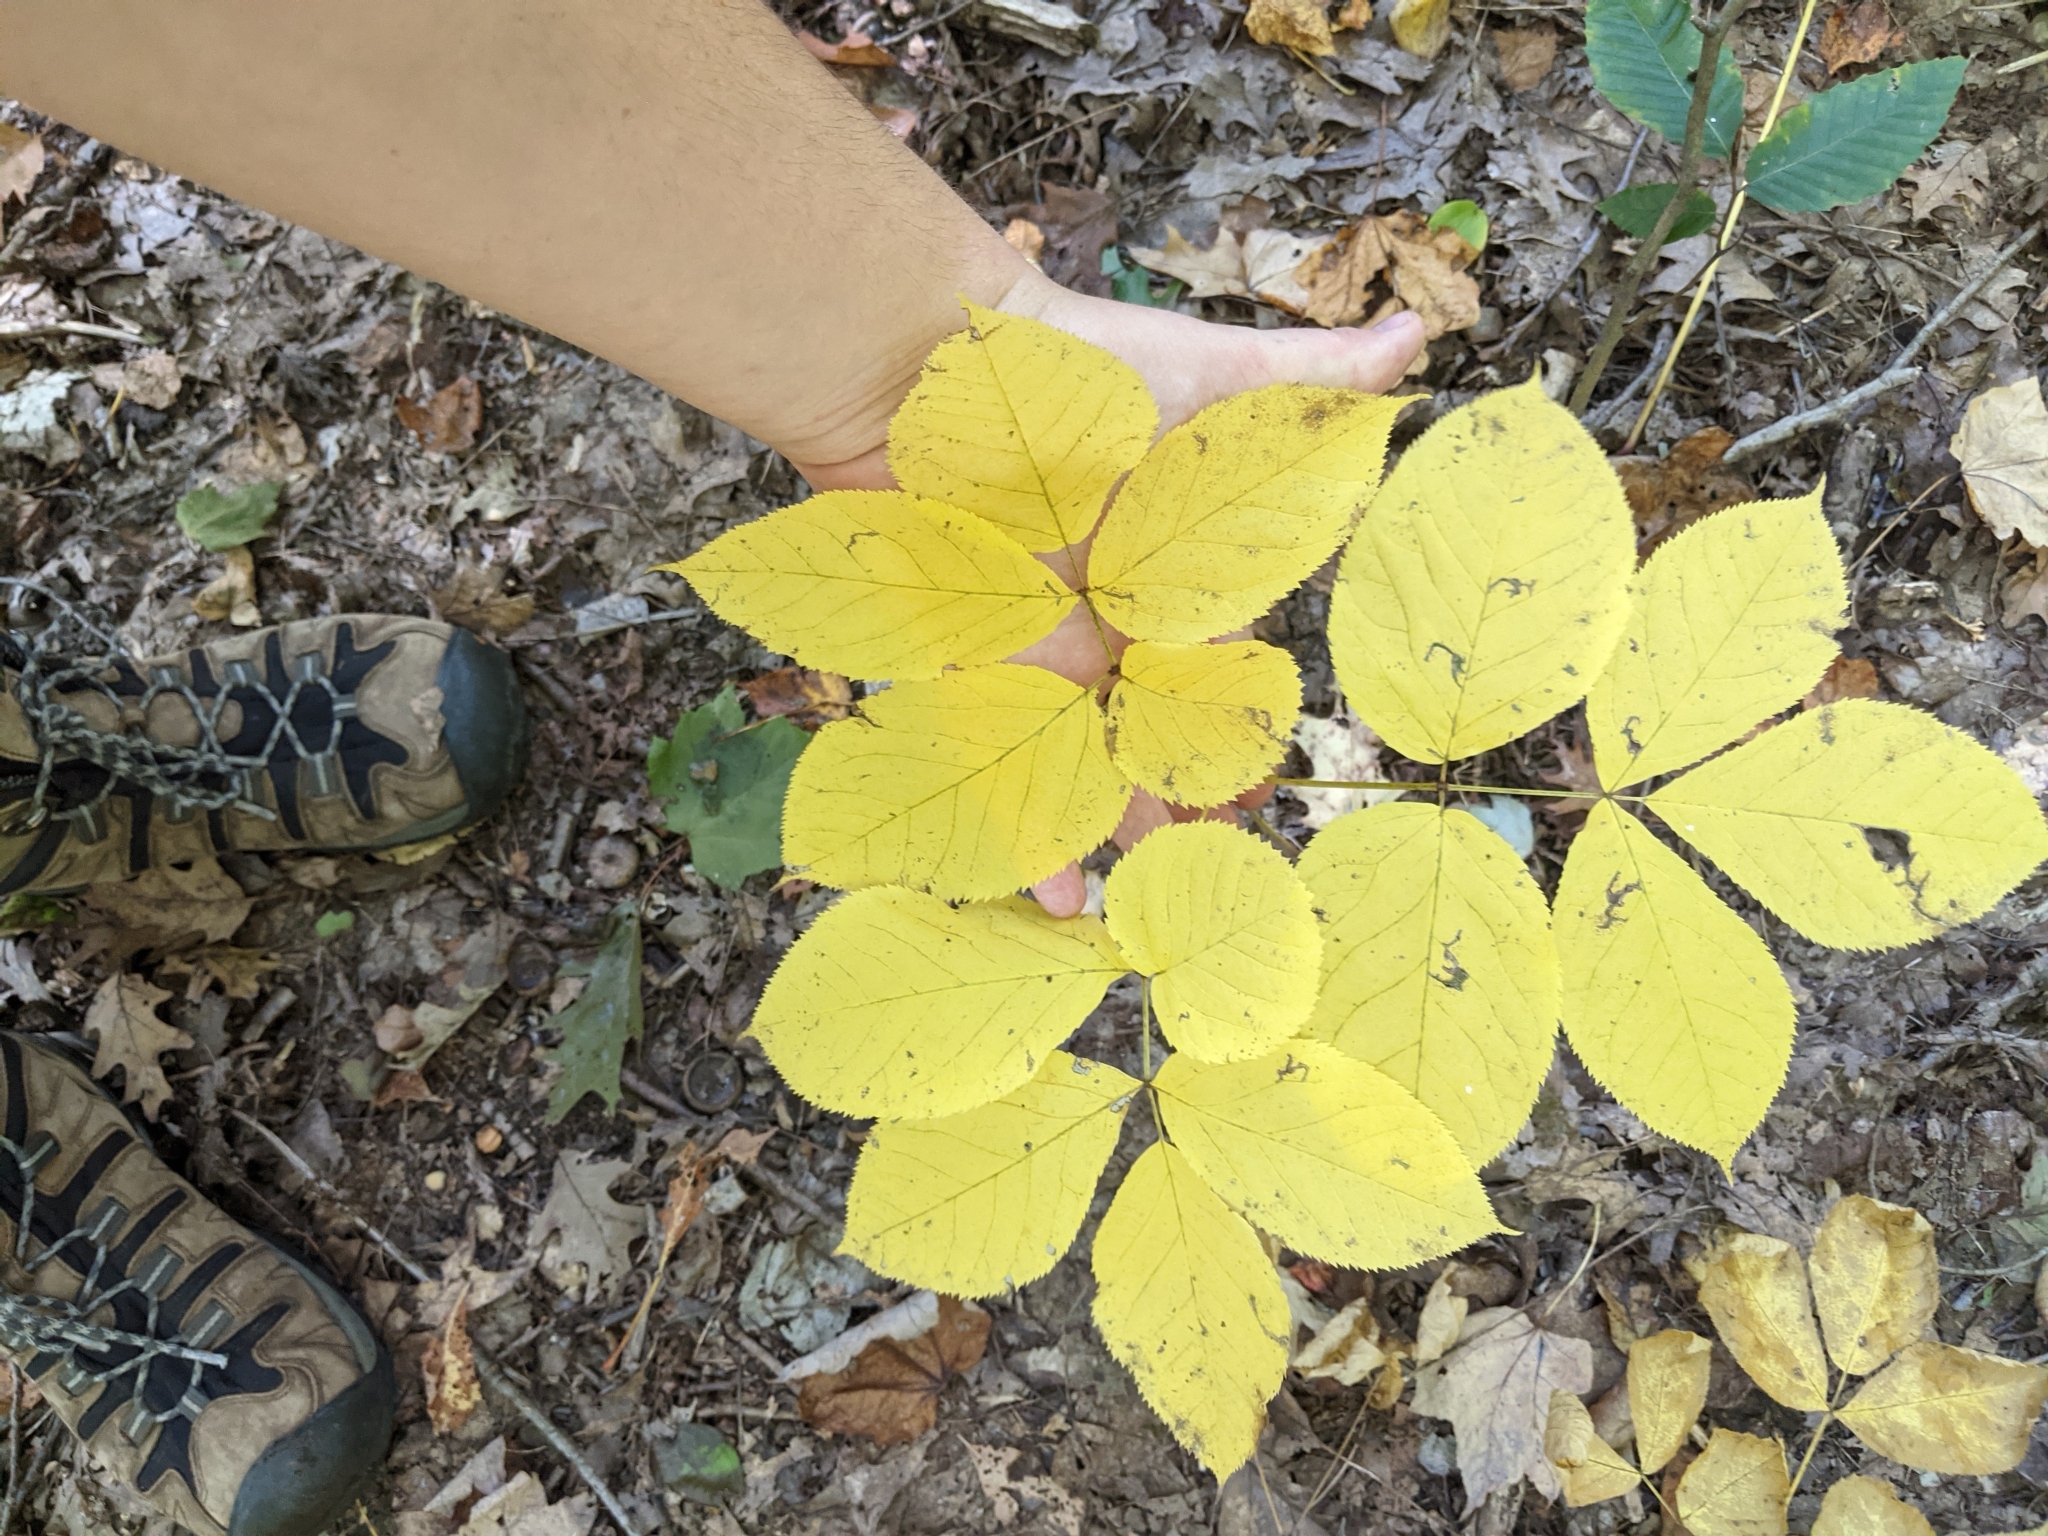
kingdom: Plantae
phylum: Tracheophyta
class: Magnoliopsida
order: Apiales
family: Araliaceae
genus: Aralia
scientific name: Aralia nudicaulis
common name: Wild sarsaparilla
